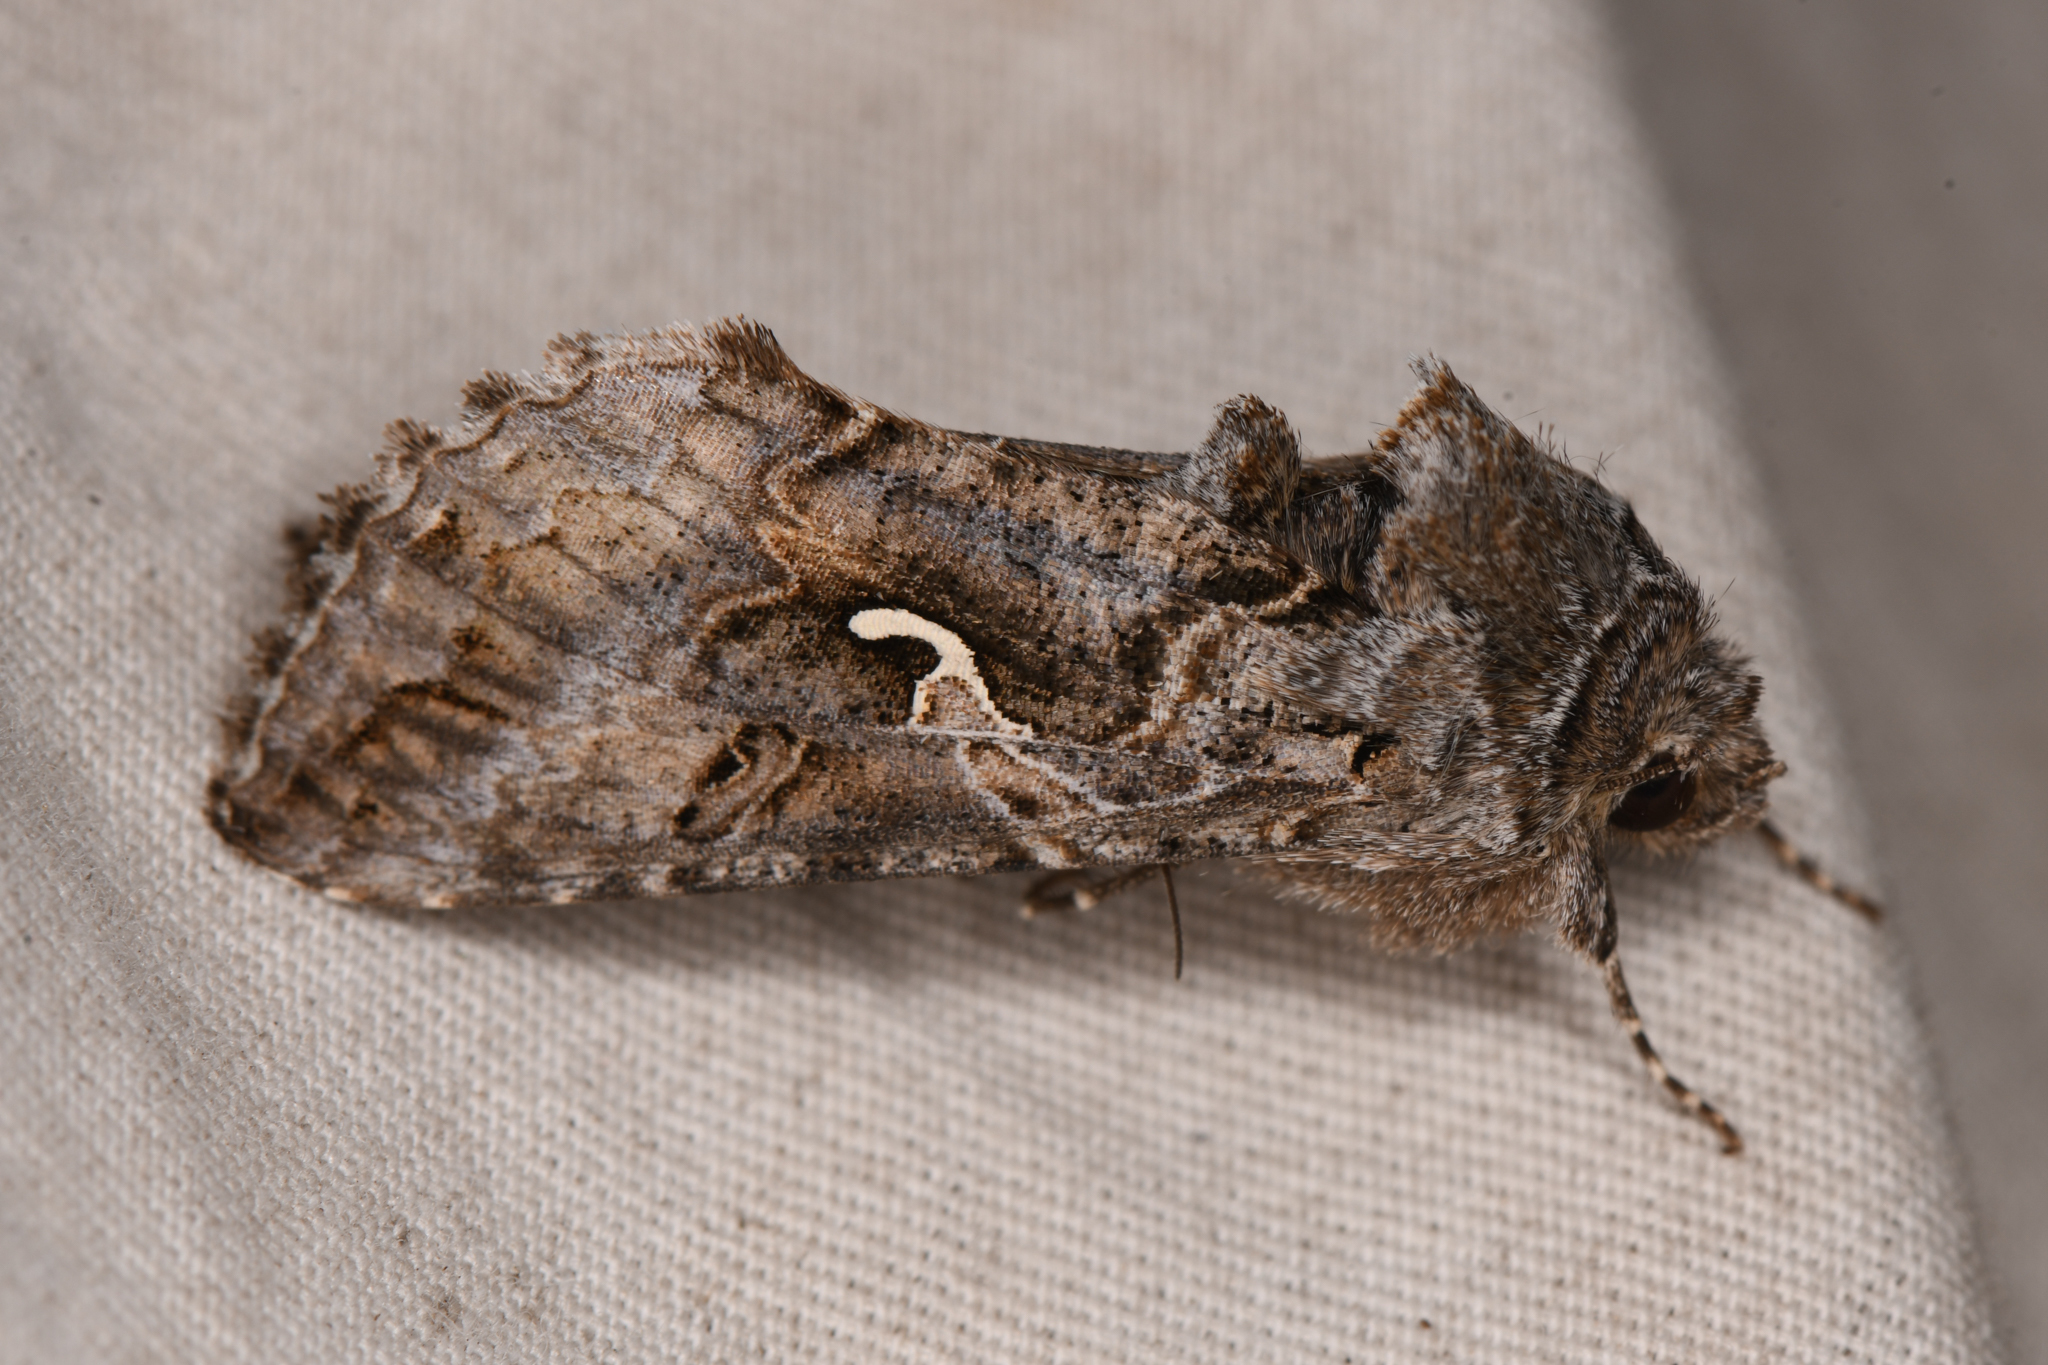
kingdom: Animalia
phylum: Arthropoda
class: Insecta
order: Lepidoptera
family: Noctuidae
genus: Autographa
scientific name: Autographa californica
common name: Alfalfa looper
